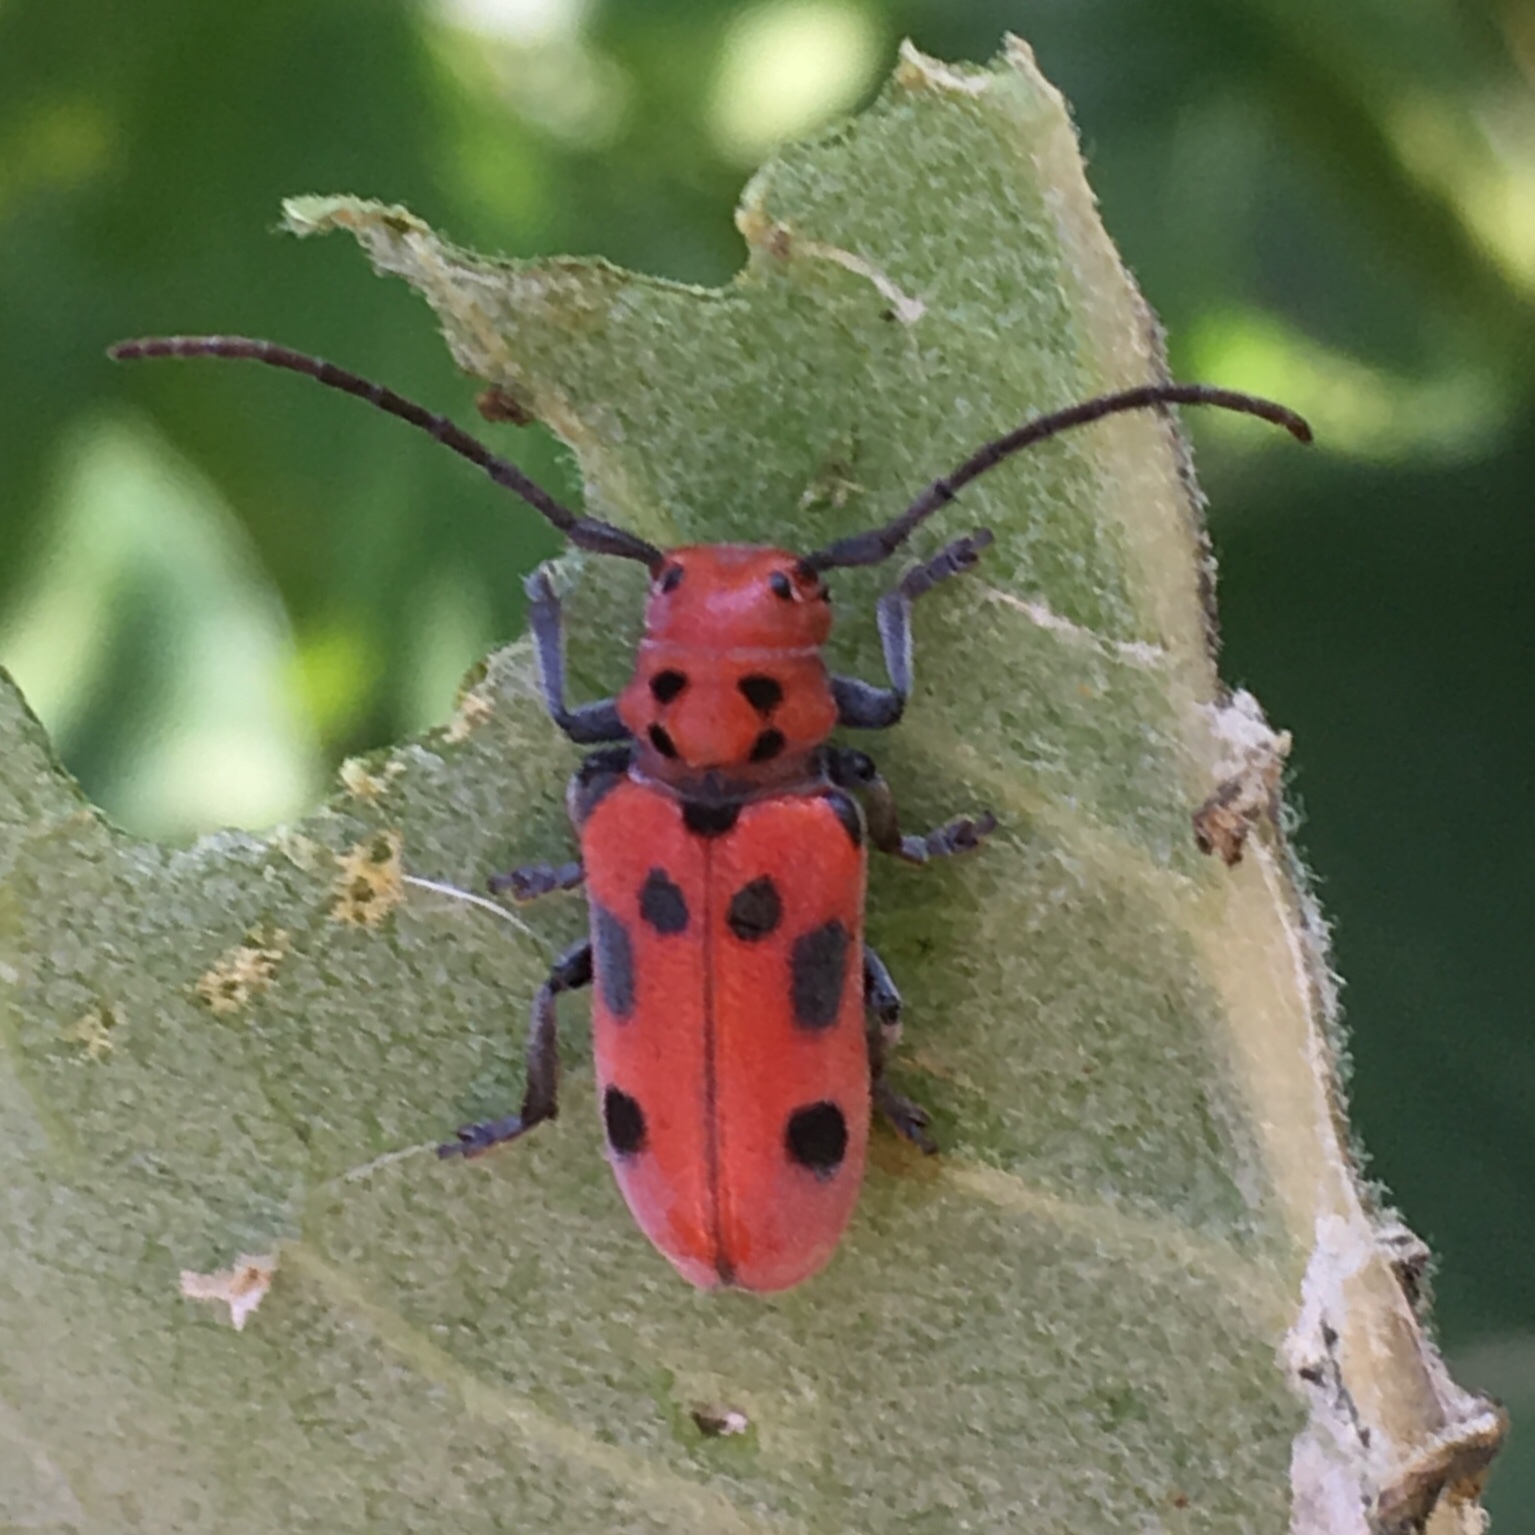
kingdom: Animalia
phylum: Arthropoda
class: Insecta
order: Coleoptera
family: Cerambycidae
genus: Tetraopes
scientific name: Tetraopes tetrophthalmus
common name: Red milkweed beetle
